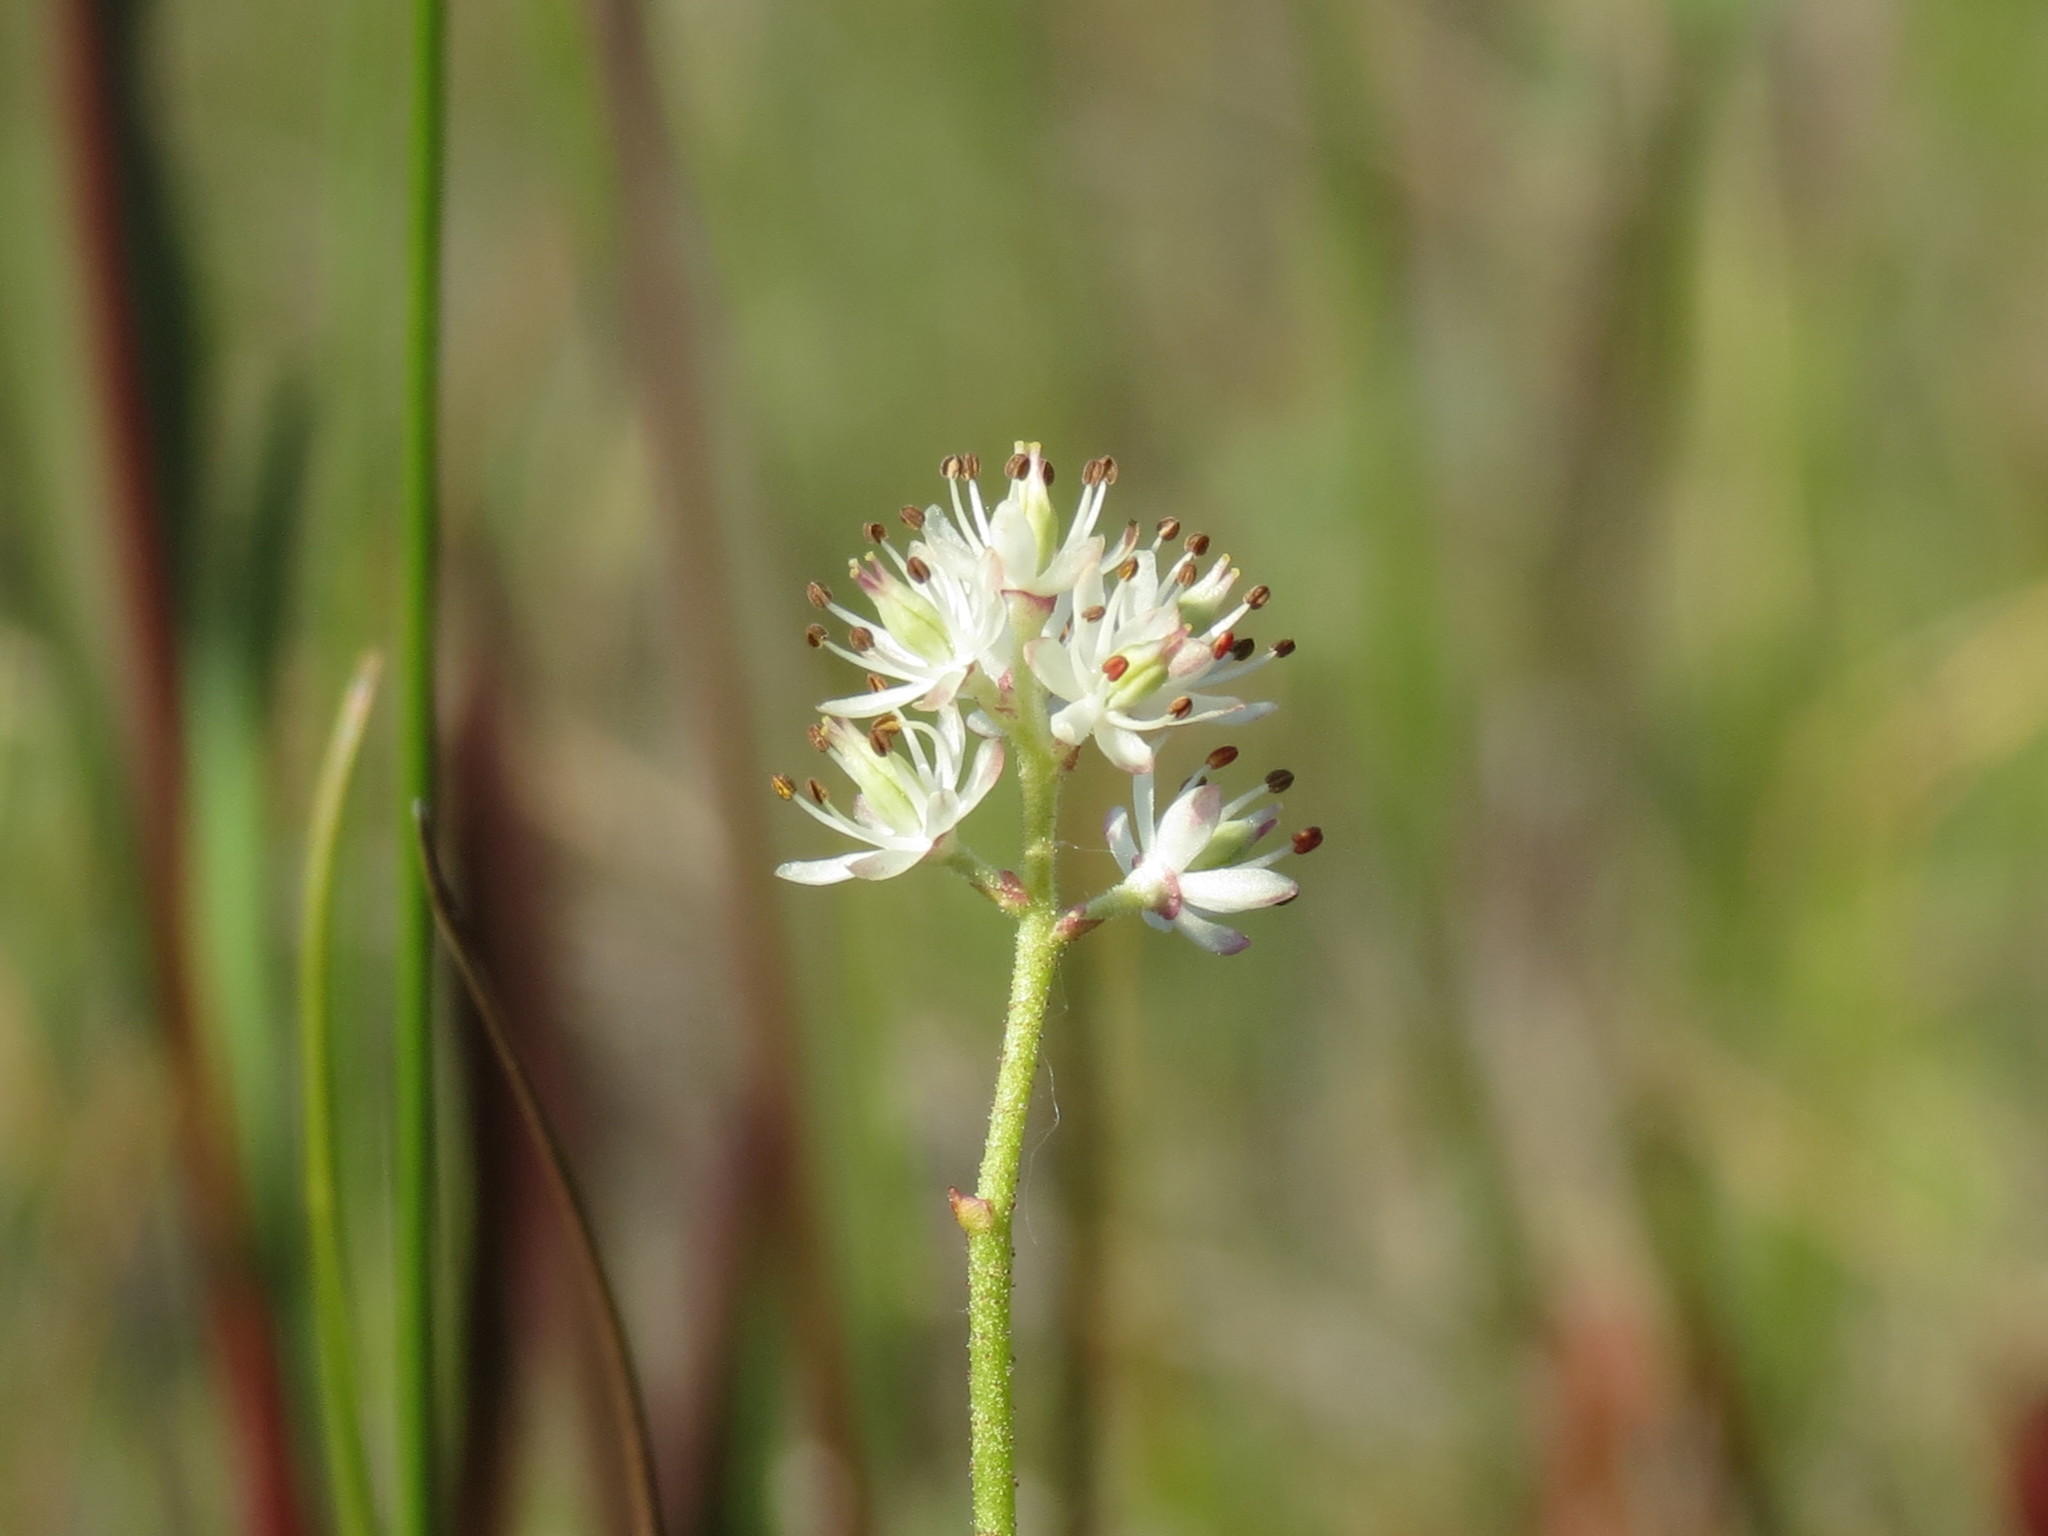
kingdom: Plantae
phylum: Tracheophyta
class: Liliopsida
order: Alismatales
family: Tofieldiaceae
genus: Triantha
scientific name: Triantha glutinosa
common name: Glutinous tofieldia
